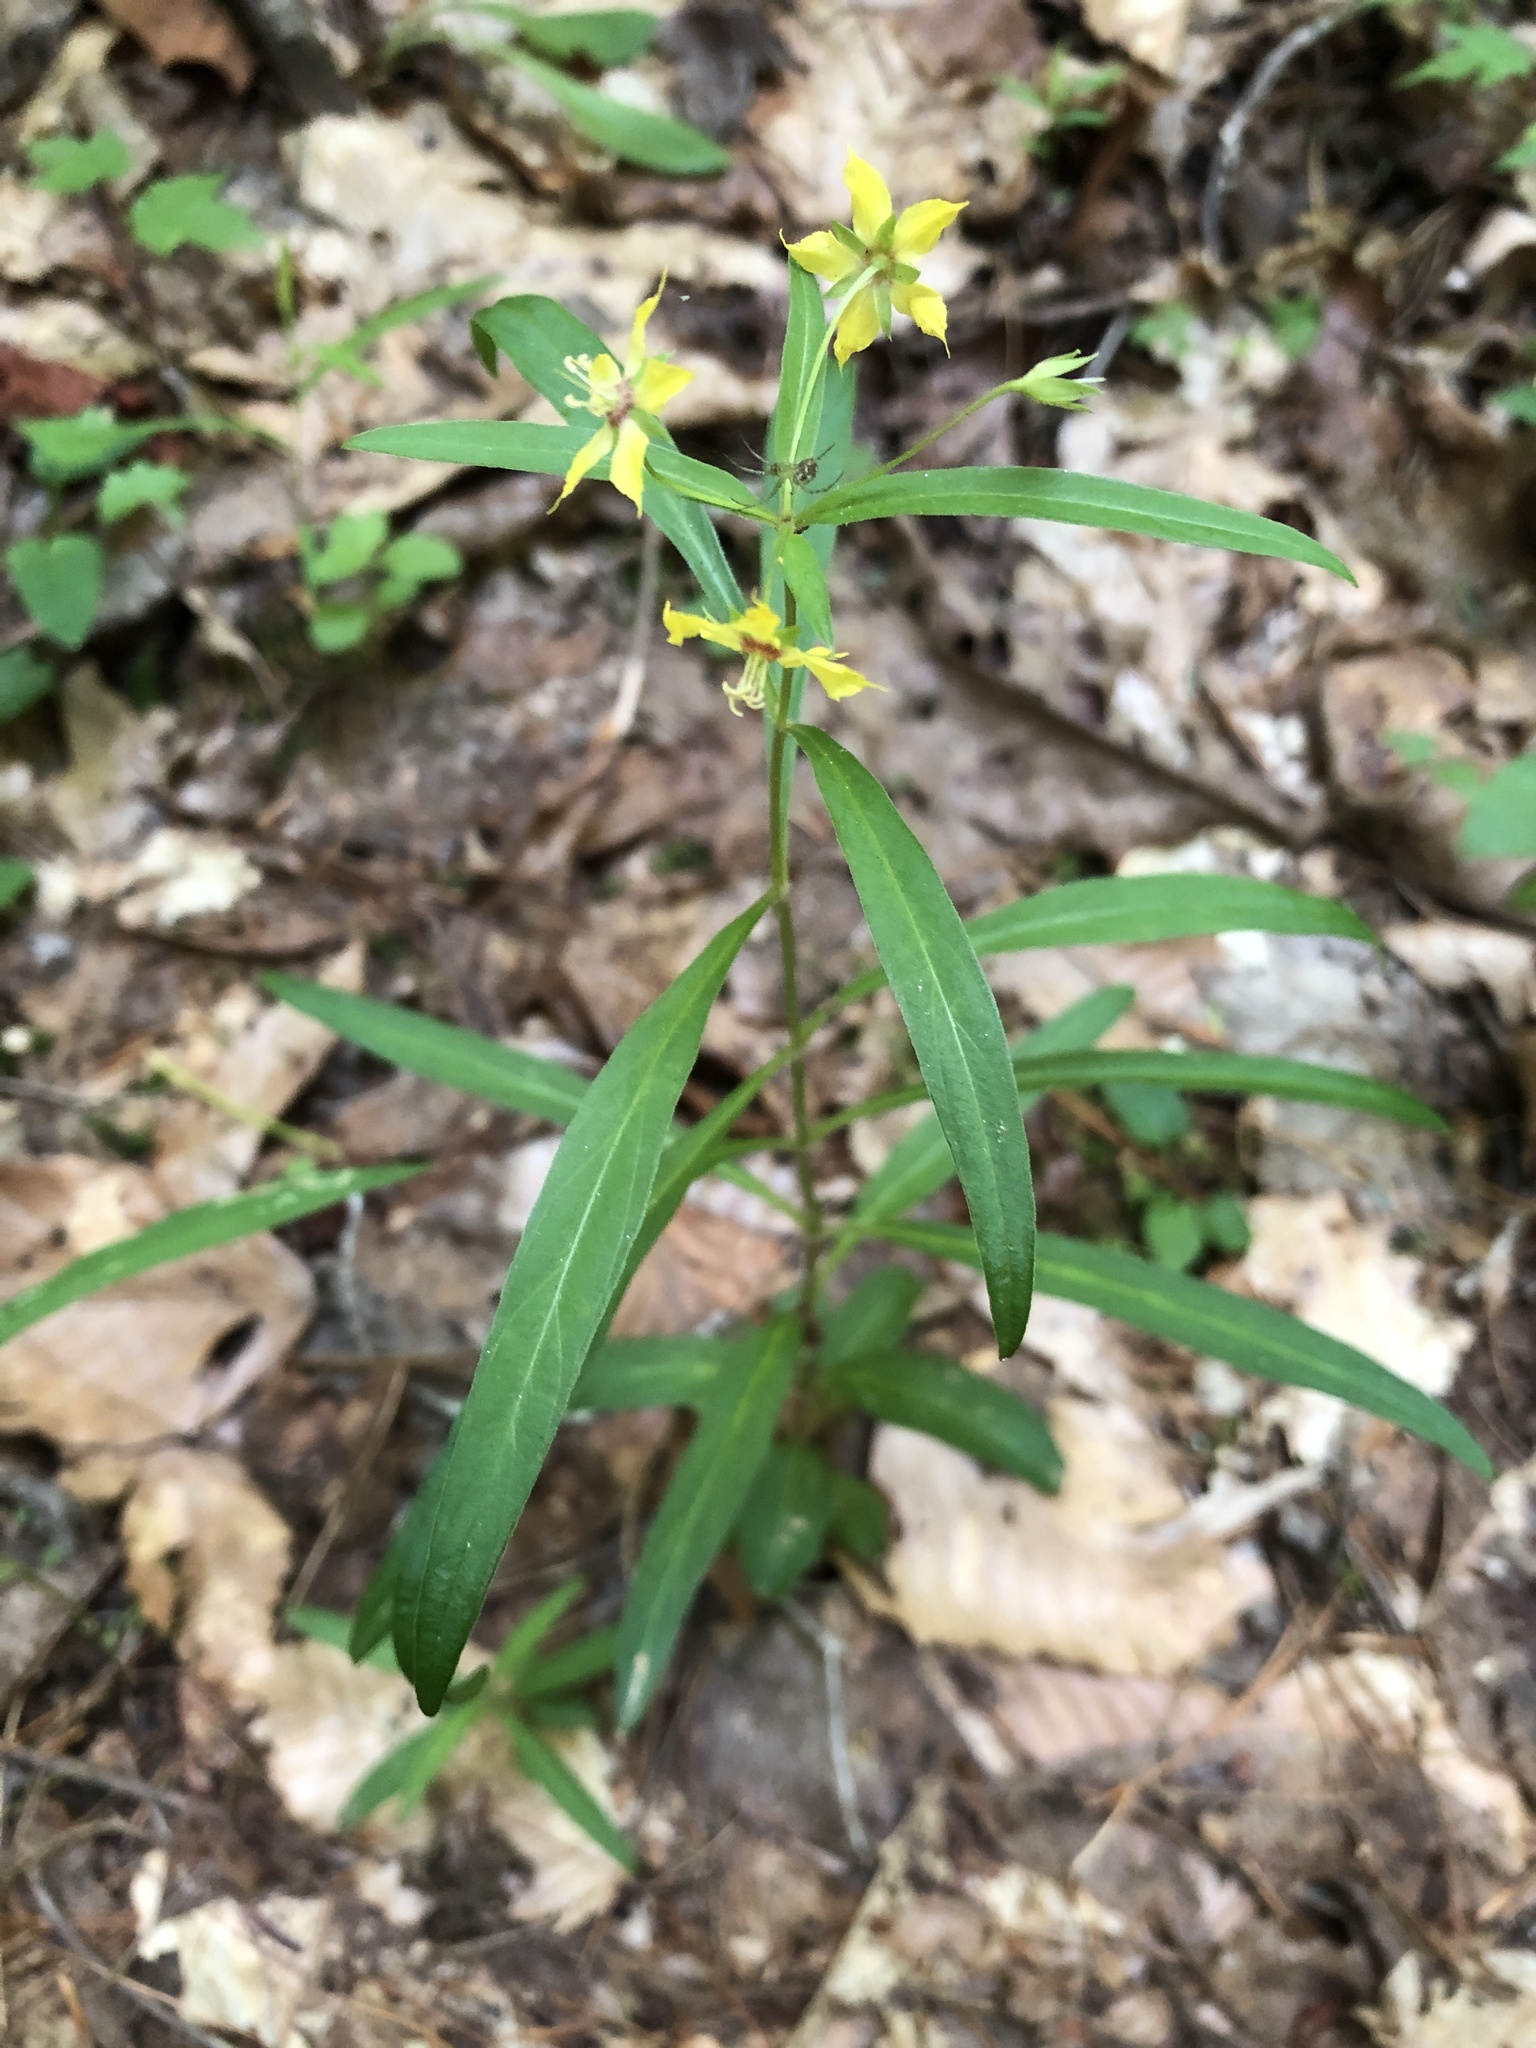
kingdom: Plantae
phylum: Tracheophyta
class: Magnoliopsida
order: Ericales
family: Primulaceae
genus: Lysimachia
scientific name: Lysimachia lanceolata
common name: Lance-leaved loosestrife
